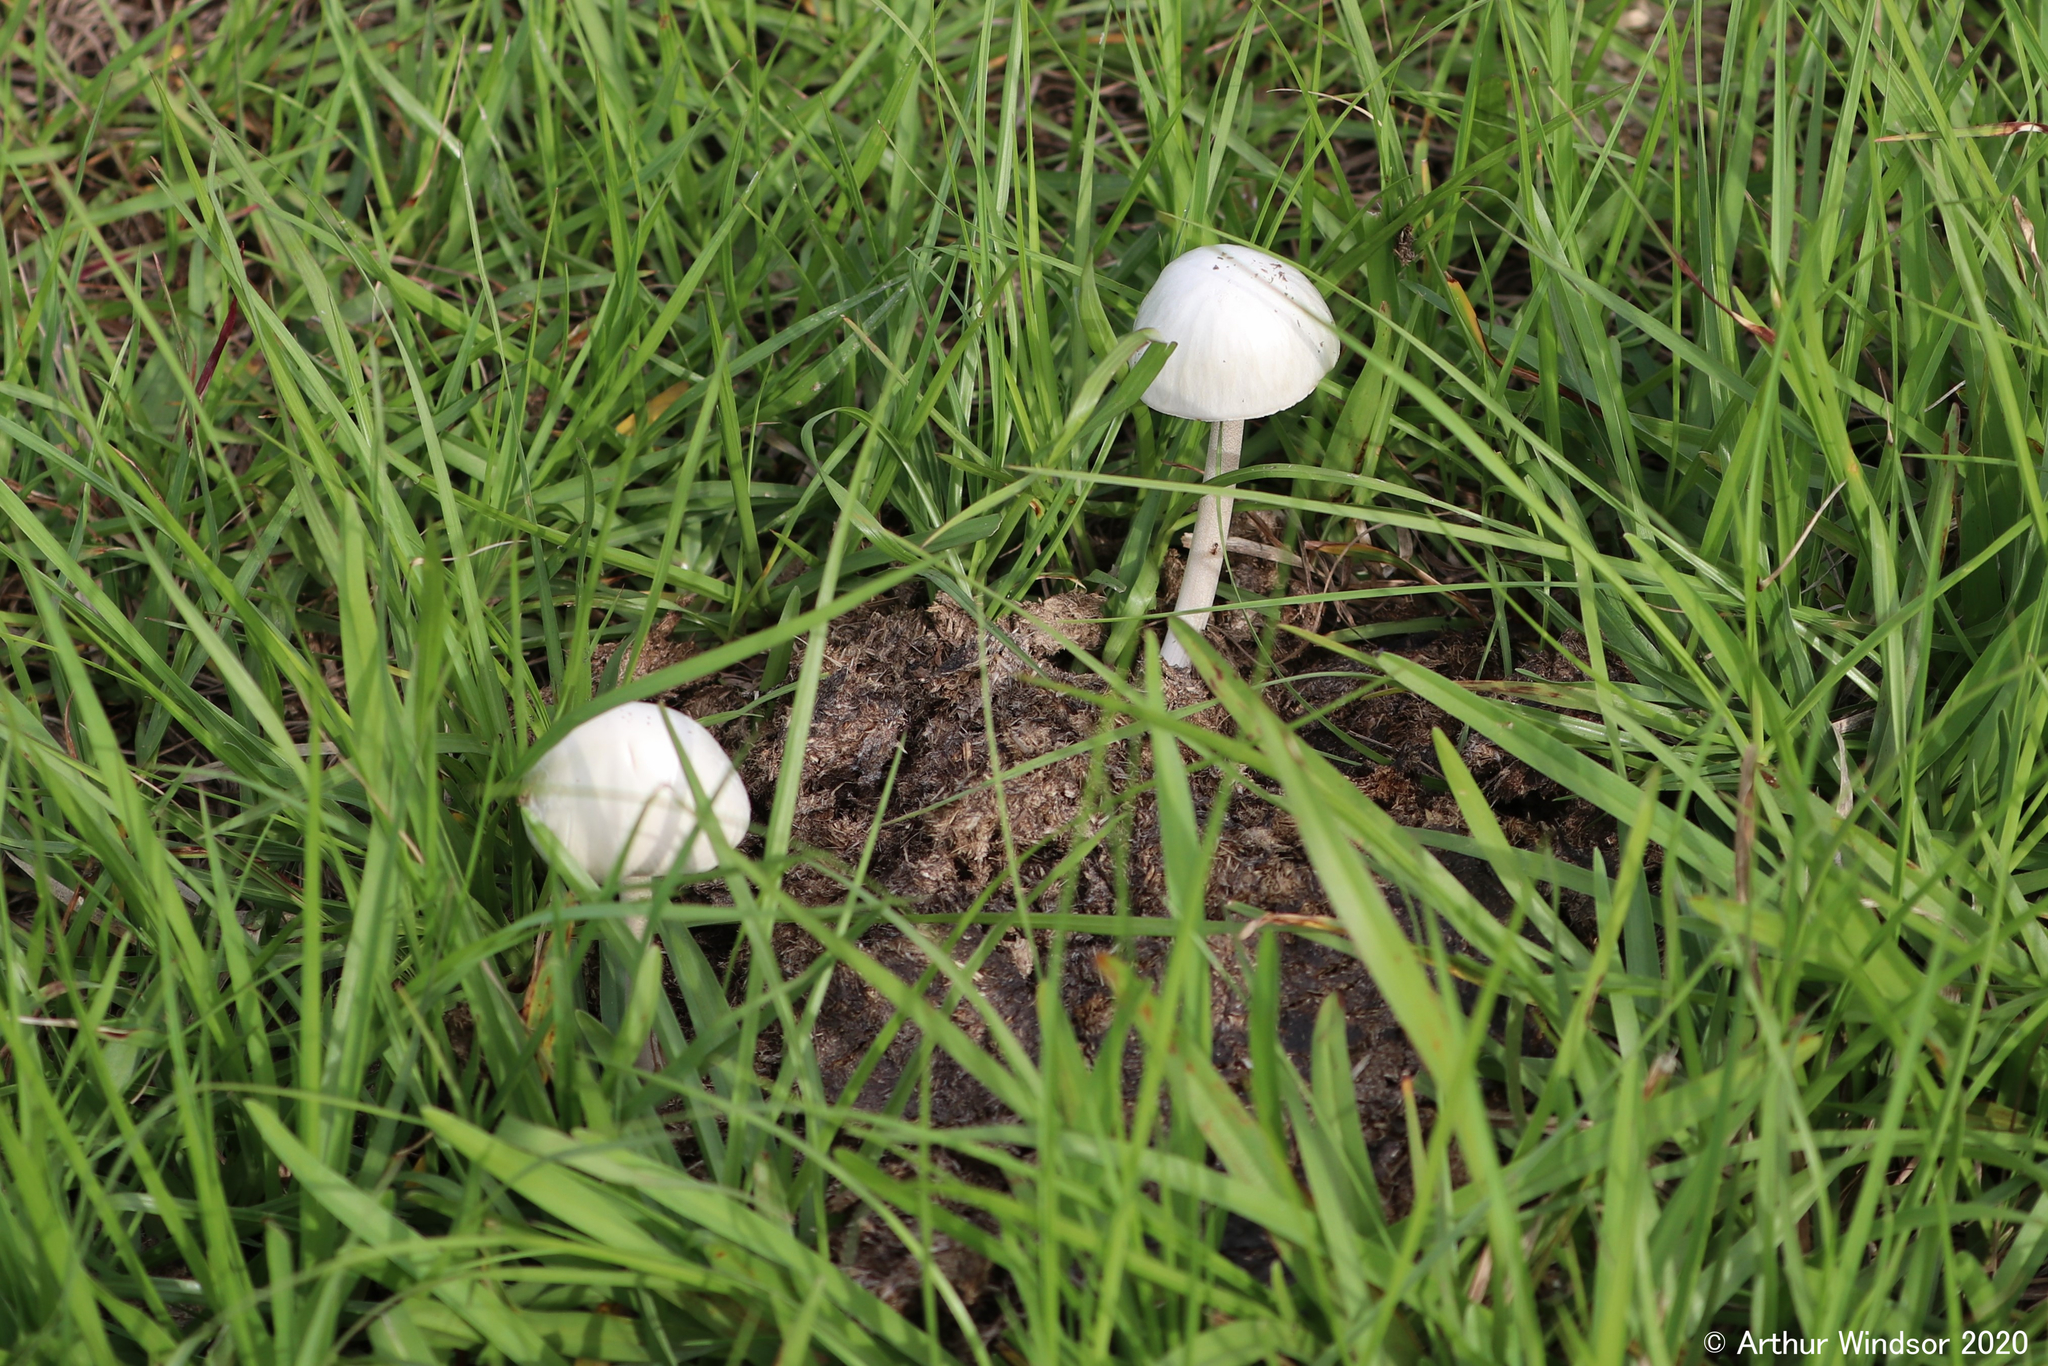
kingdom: Fungi
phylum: Basidiomycota
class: Agaricomycetes
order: Agaricales
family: Bolbitiaceae
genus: Panaeolus
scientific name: Panaeolus antillarum
